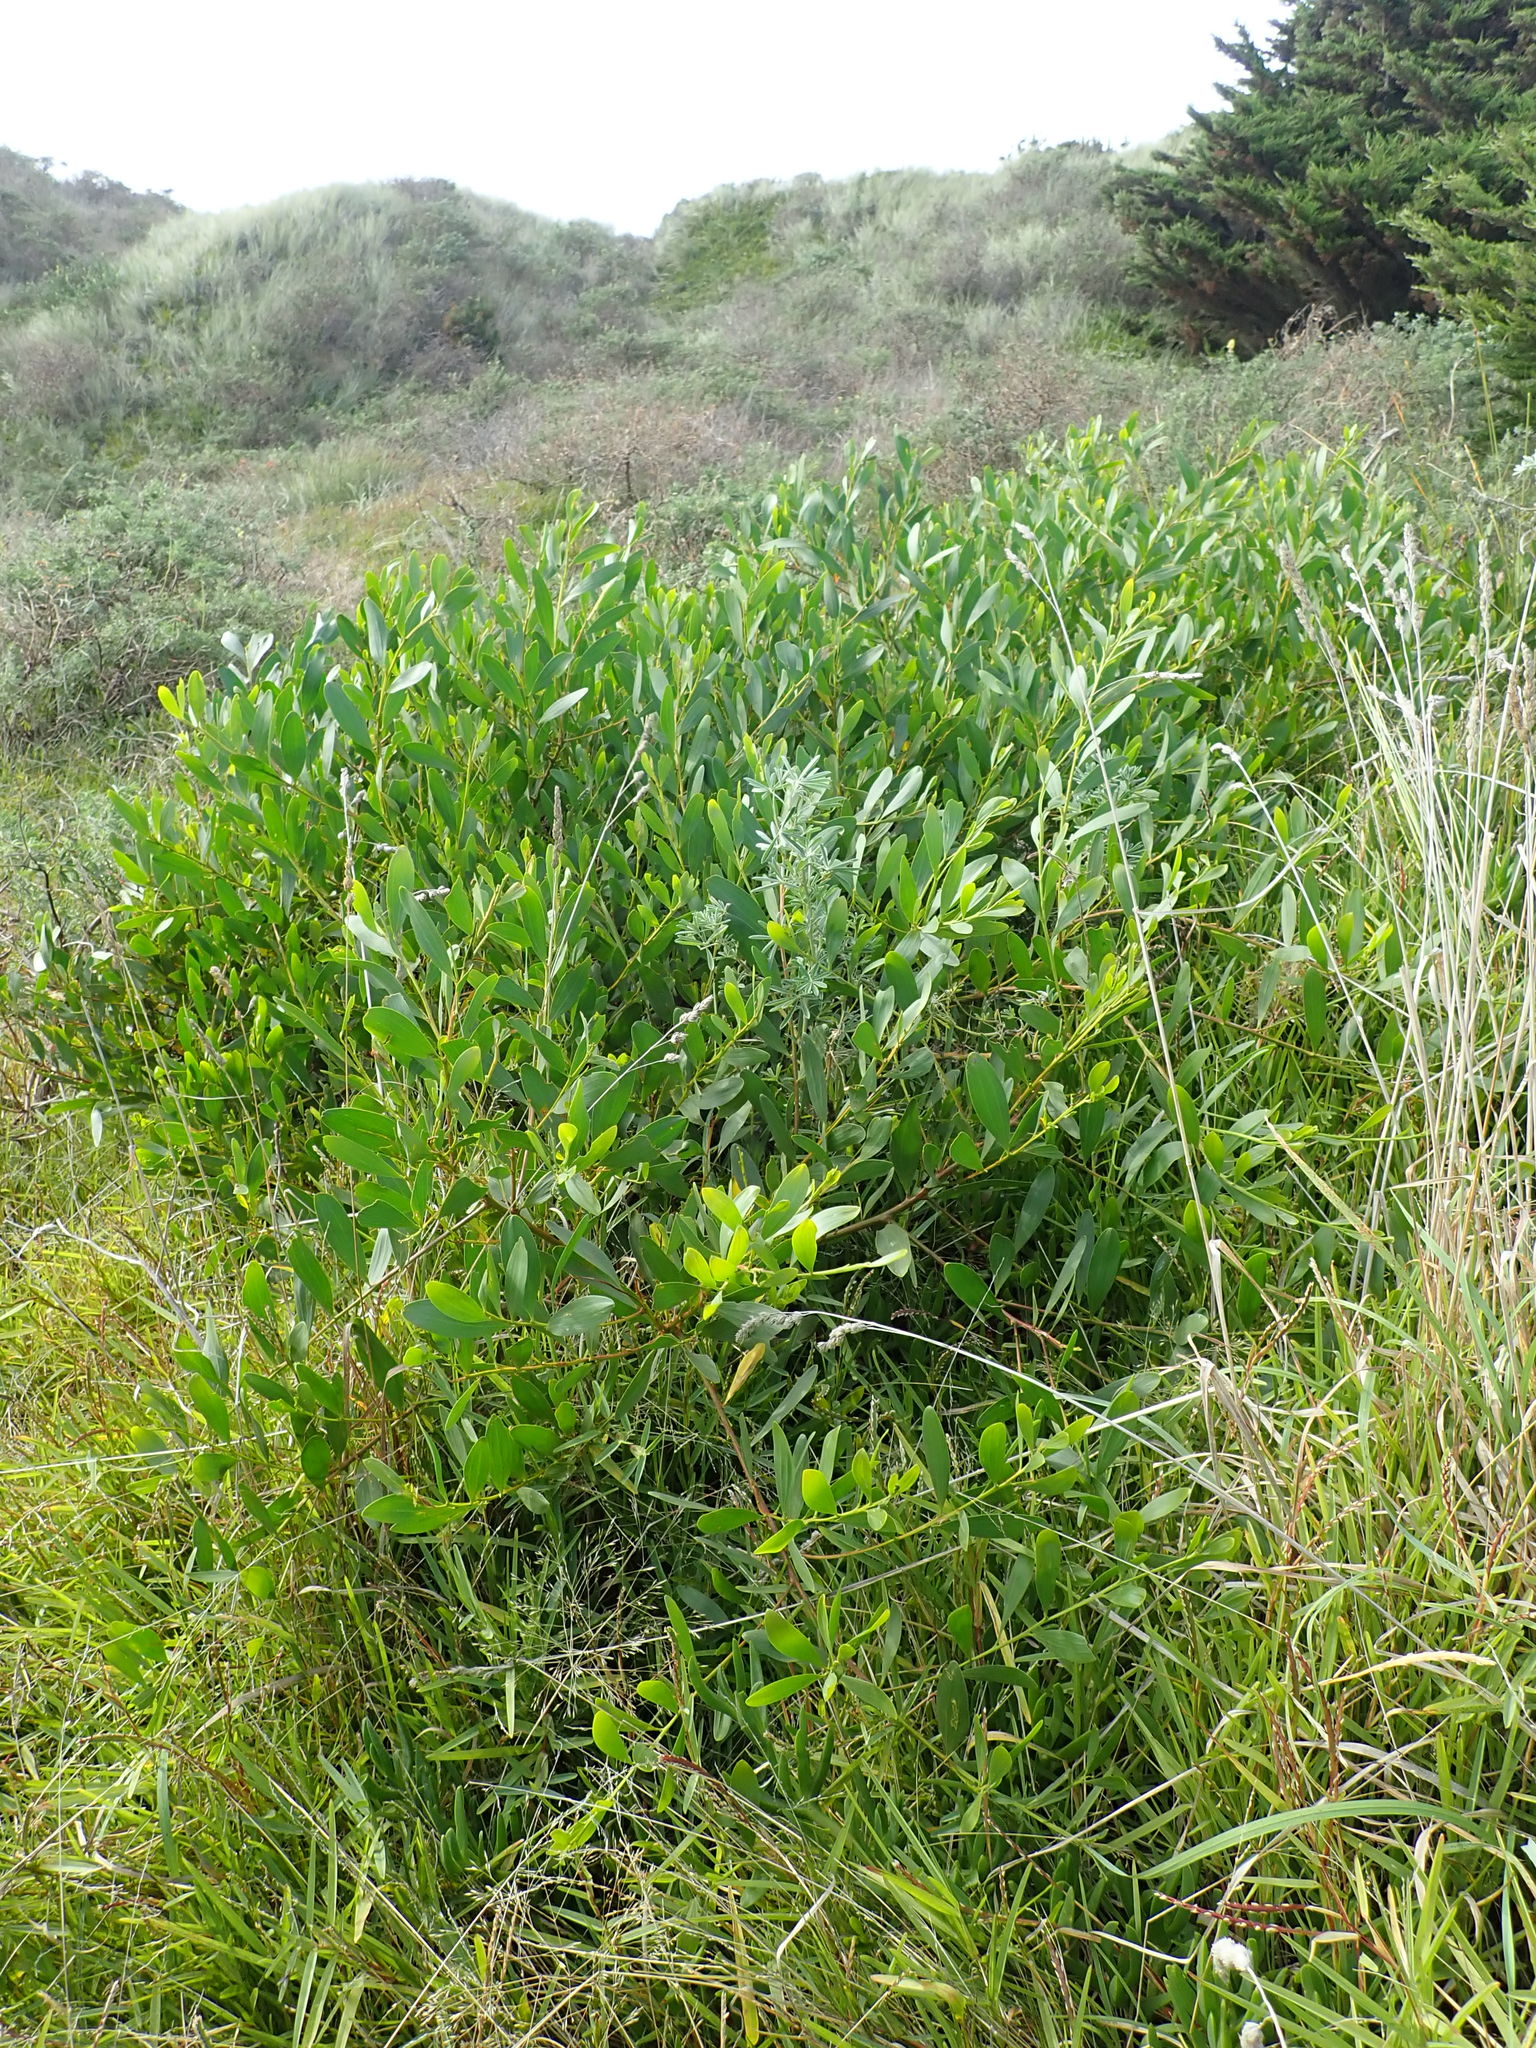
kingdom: Plantae
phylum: Tracheophyta
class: Magnoliopsida
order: Fabales
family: Fabaceae
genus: Acacia
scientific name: Acacia longifolia
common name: Sydney golden wattle
